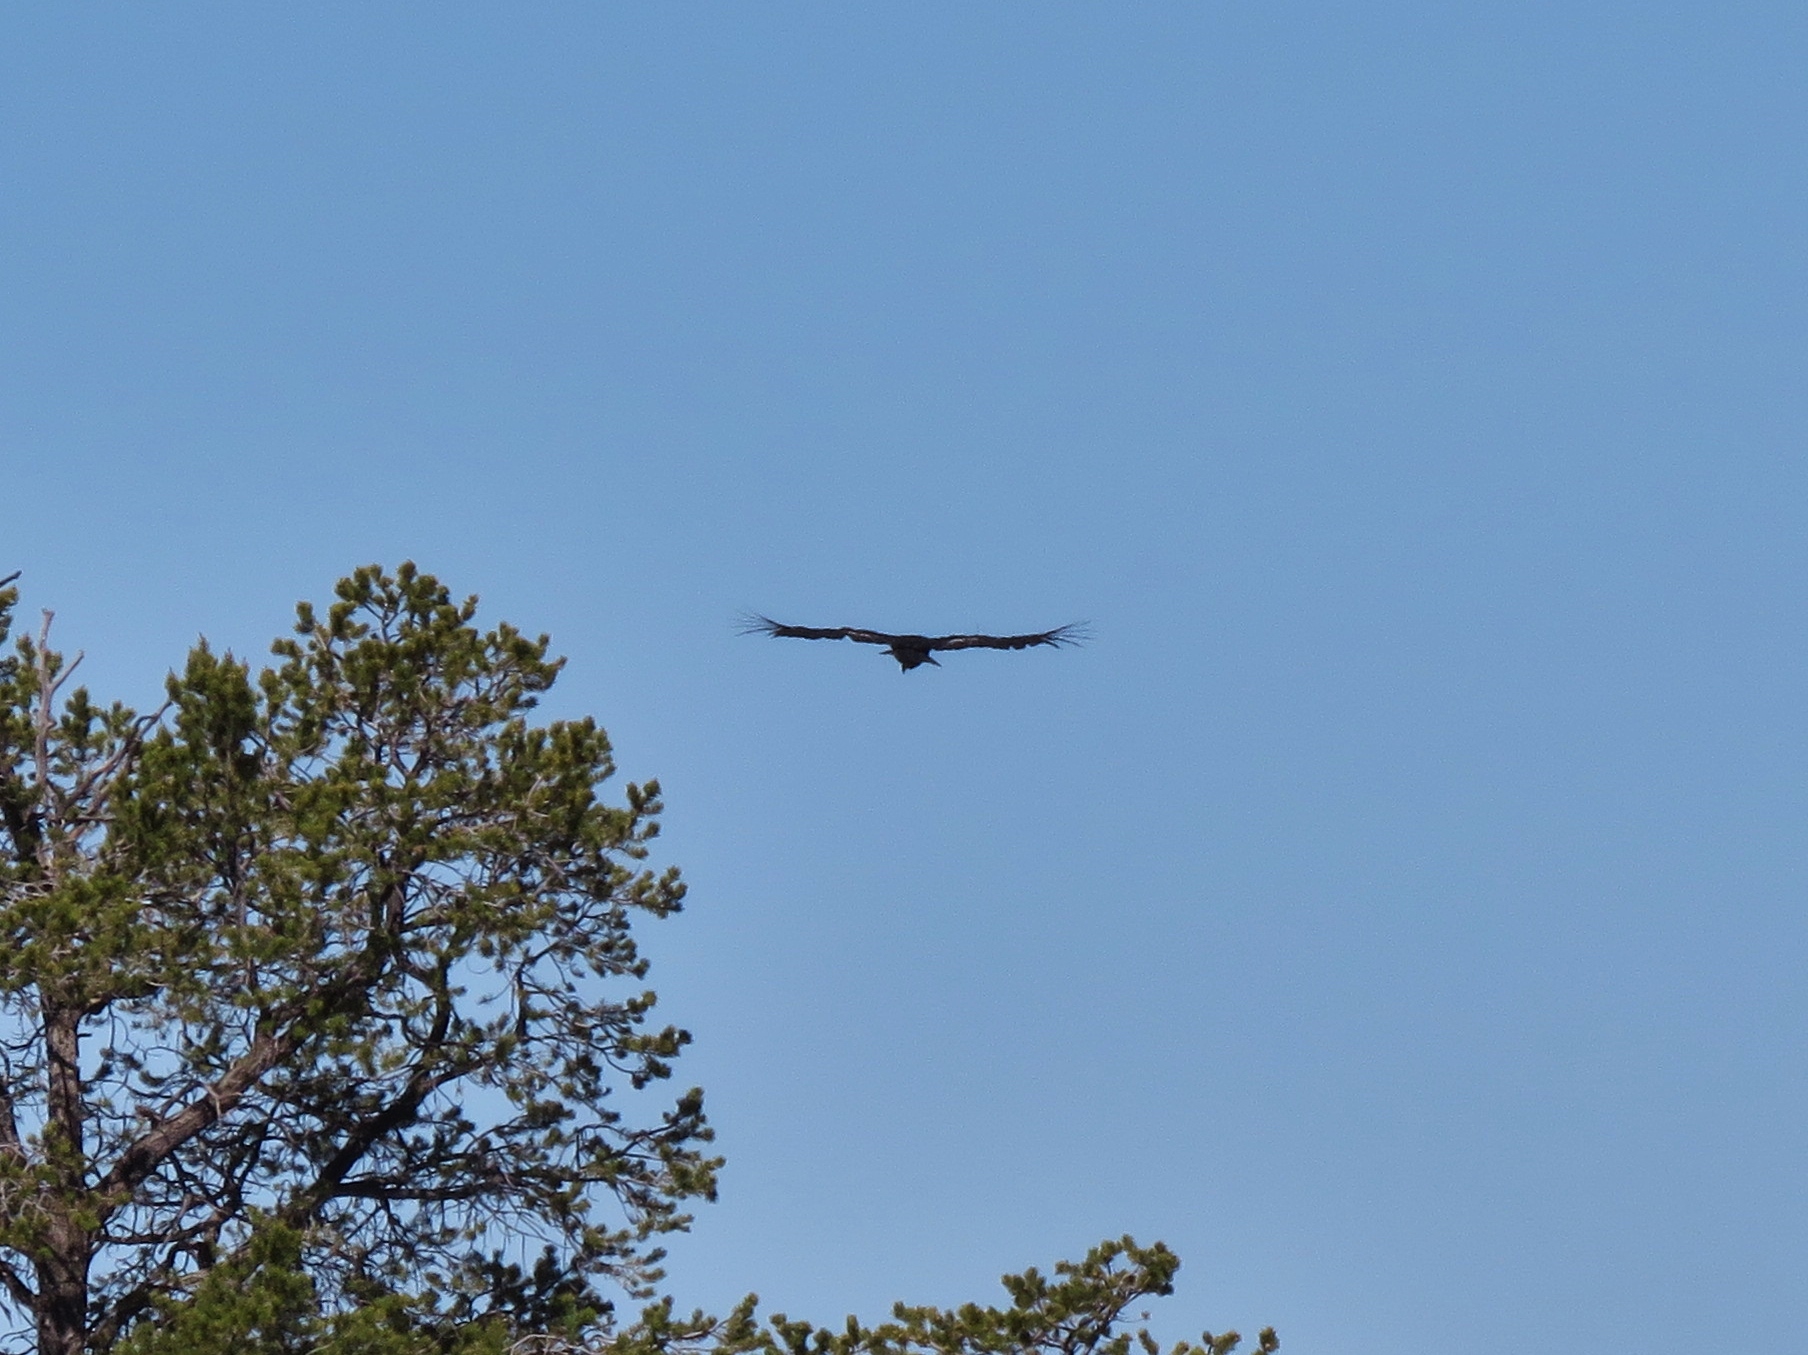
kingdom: Animalia
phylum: Chordata
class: Aves
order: Accipitriformes
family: Cathartidae
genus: Gymnogyps
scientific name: Gymnogyps californianus
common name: California condor
